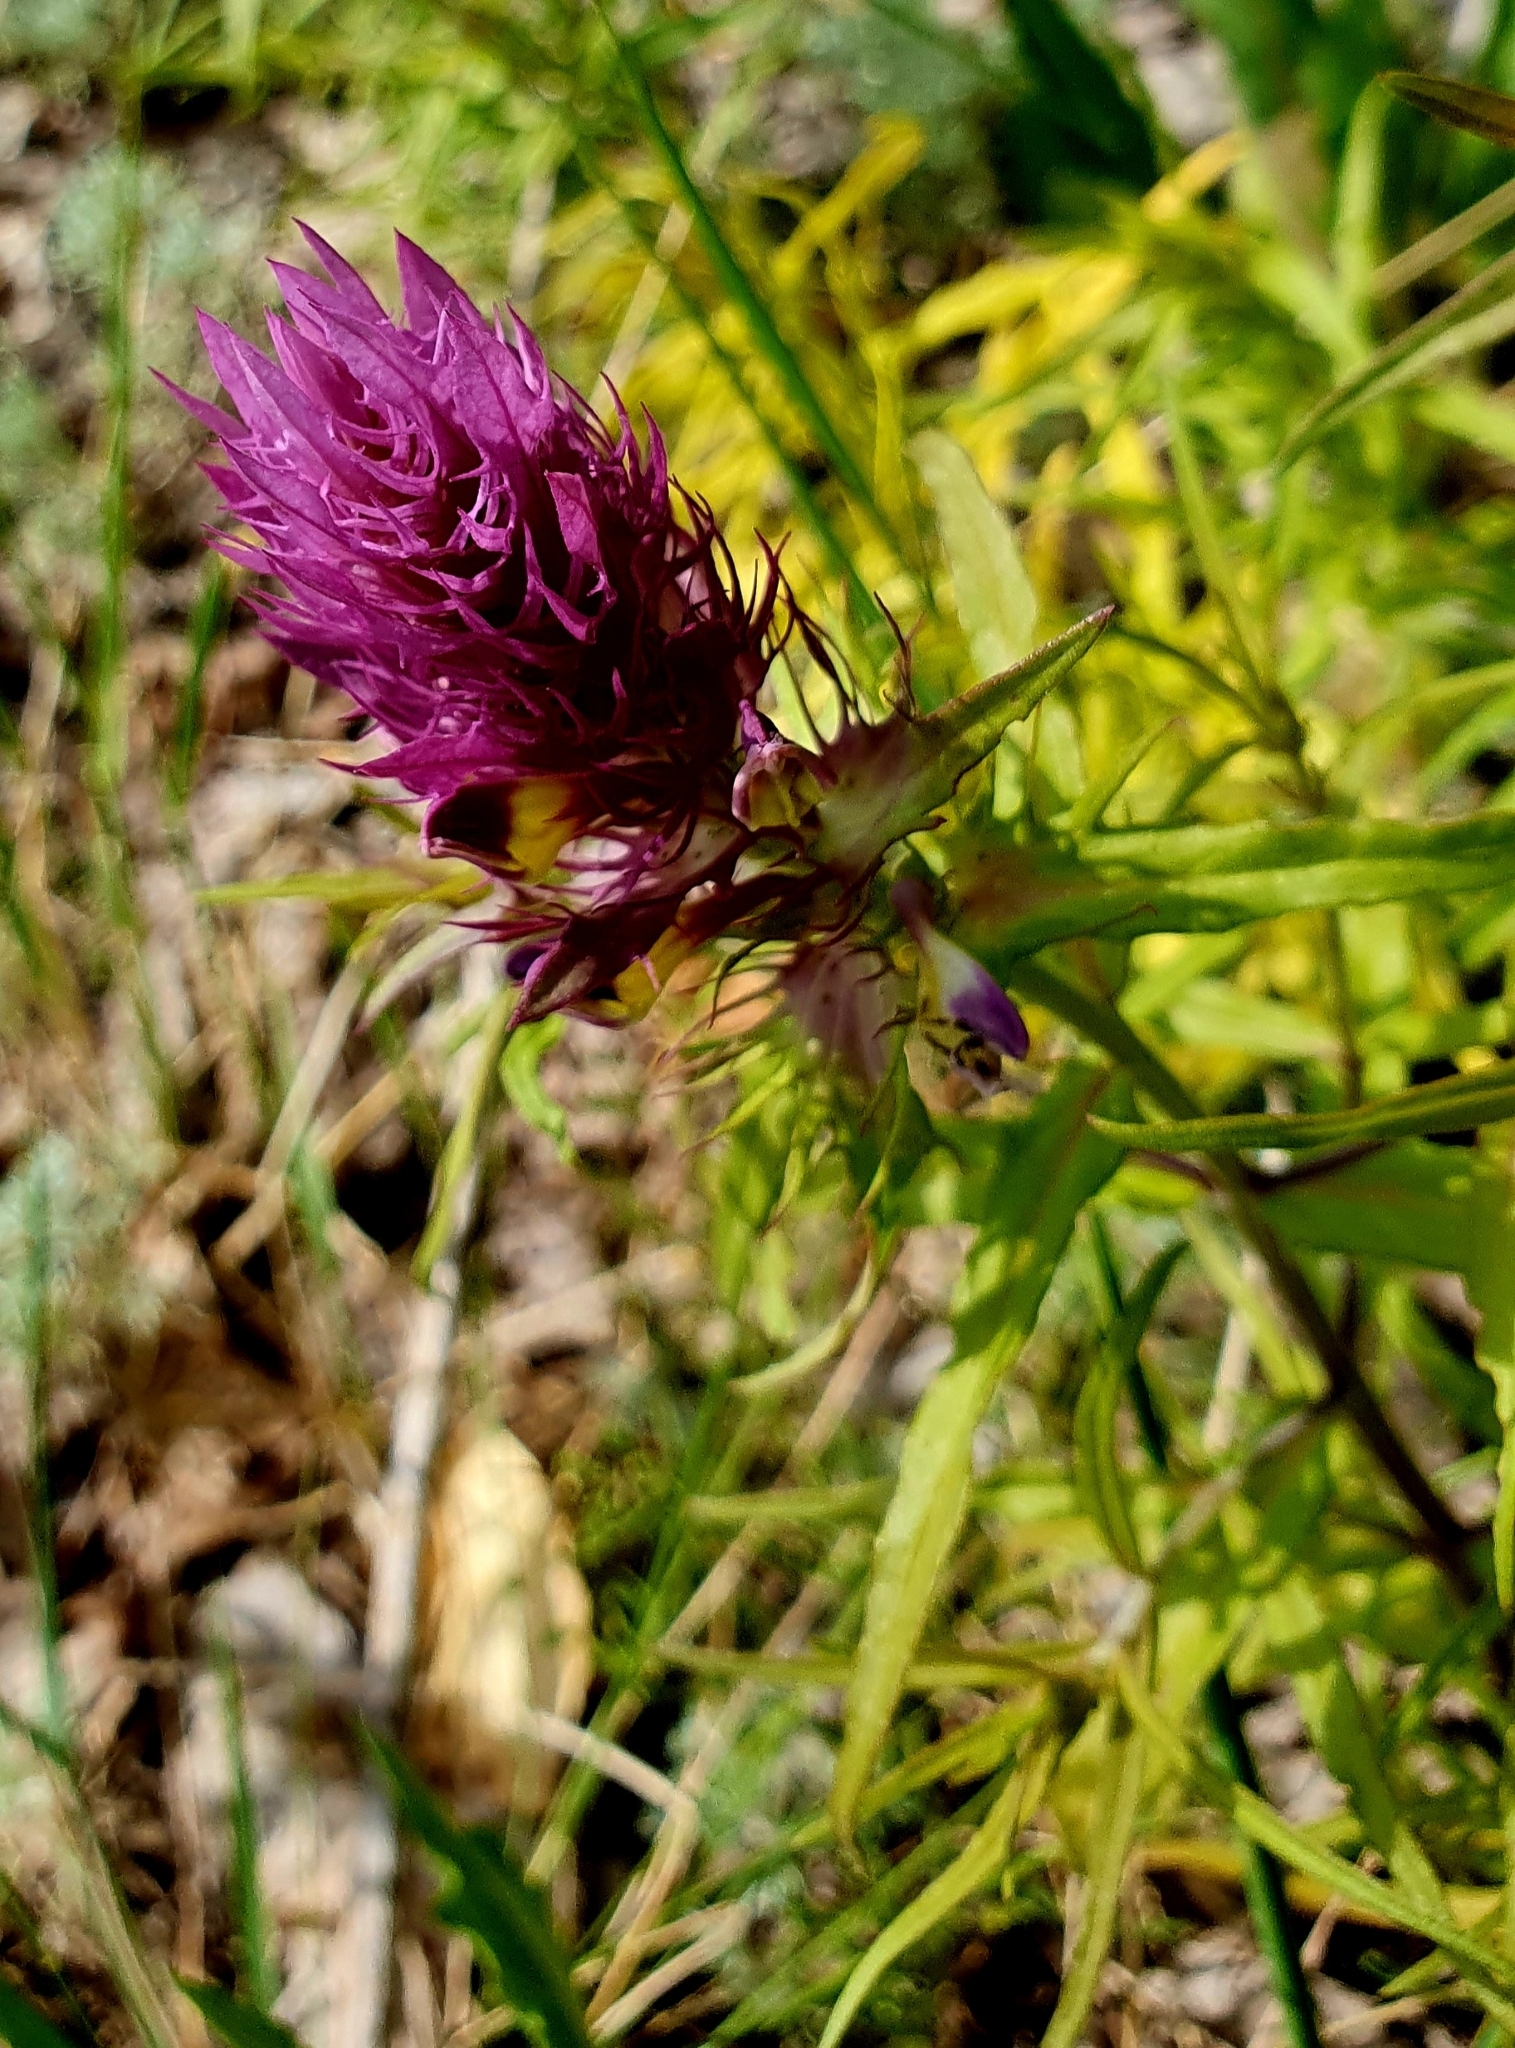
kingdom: Plantae
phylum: Tracheophyta
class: Magnoliopsida
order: Lamiales
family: Orobanchaceae
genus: Melampyrum
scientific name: Melampyrum arvense
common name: Field cow-wheat
